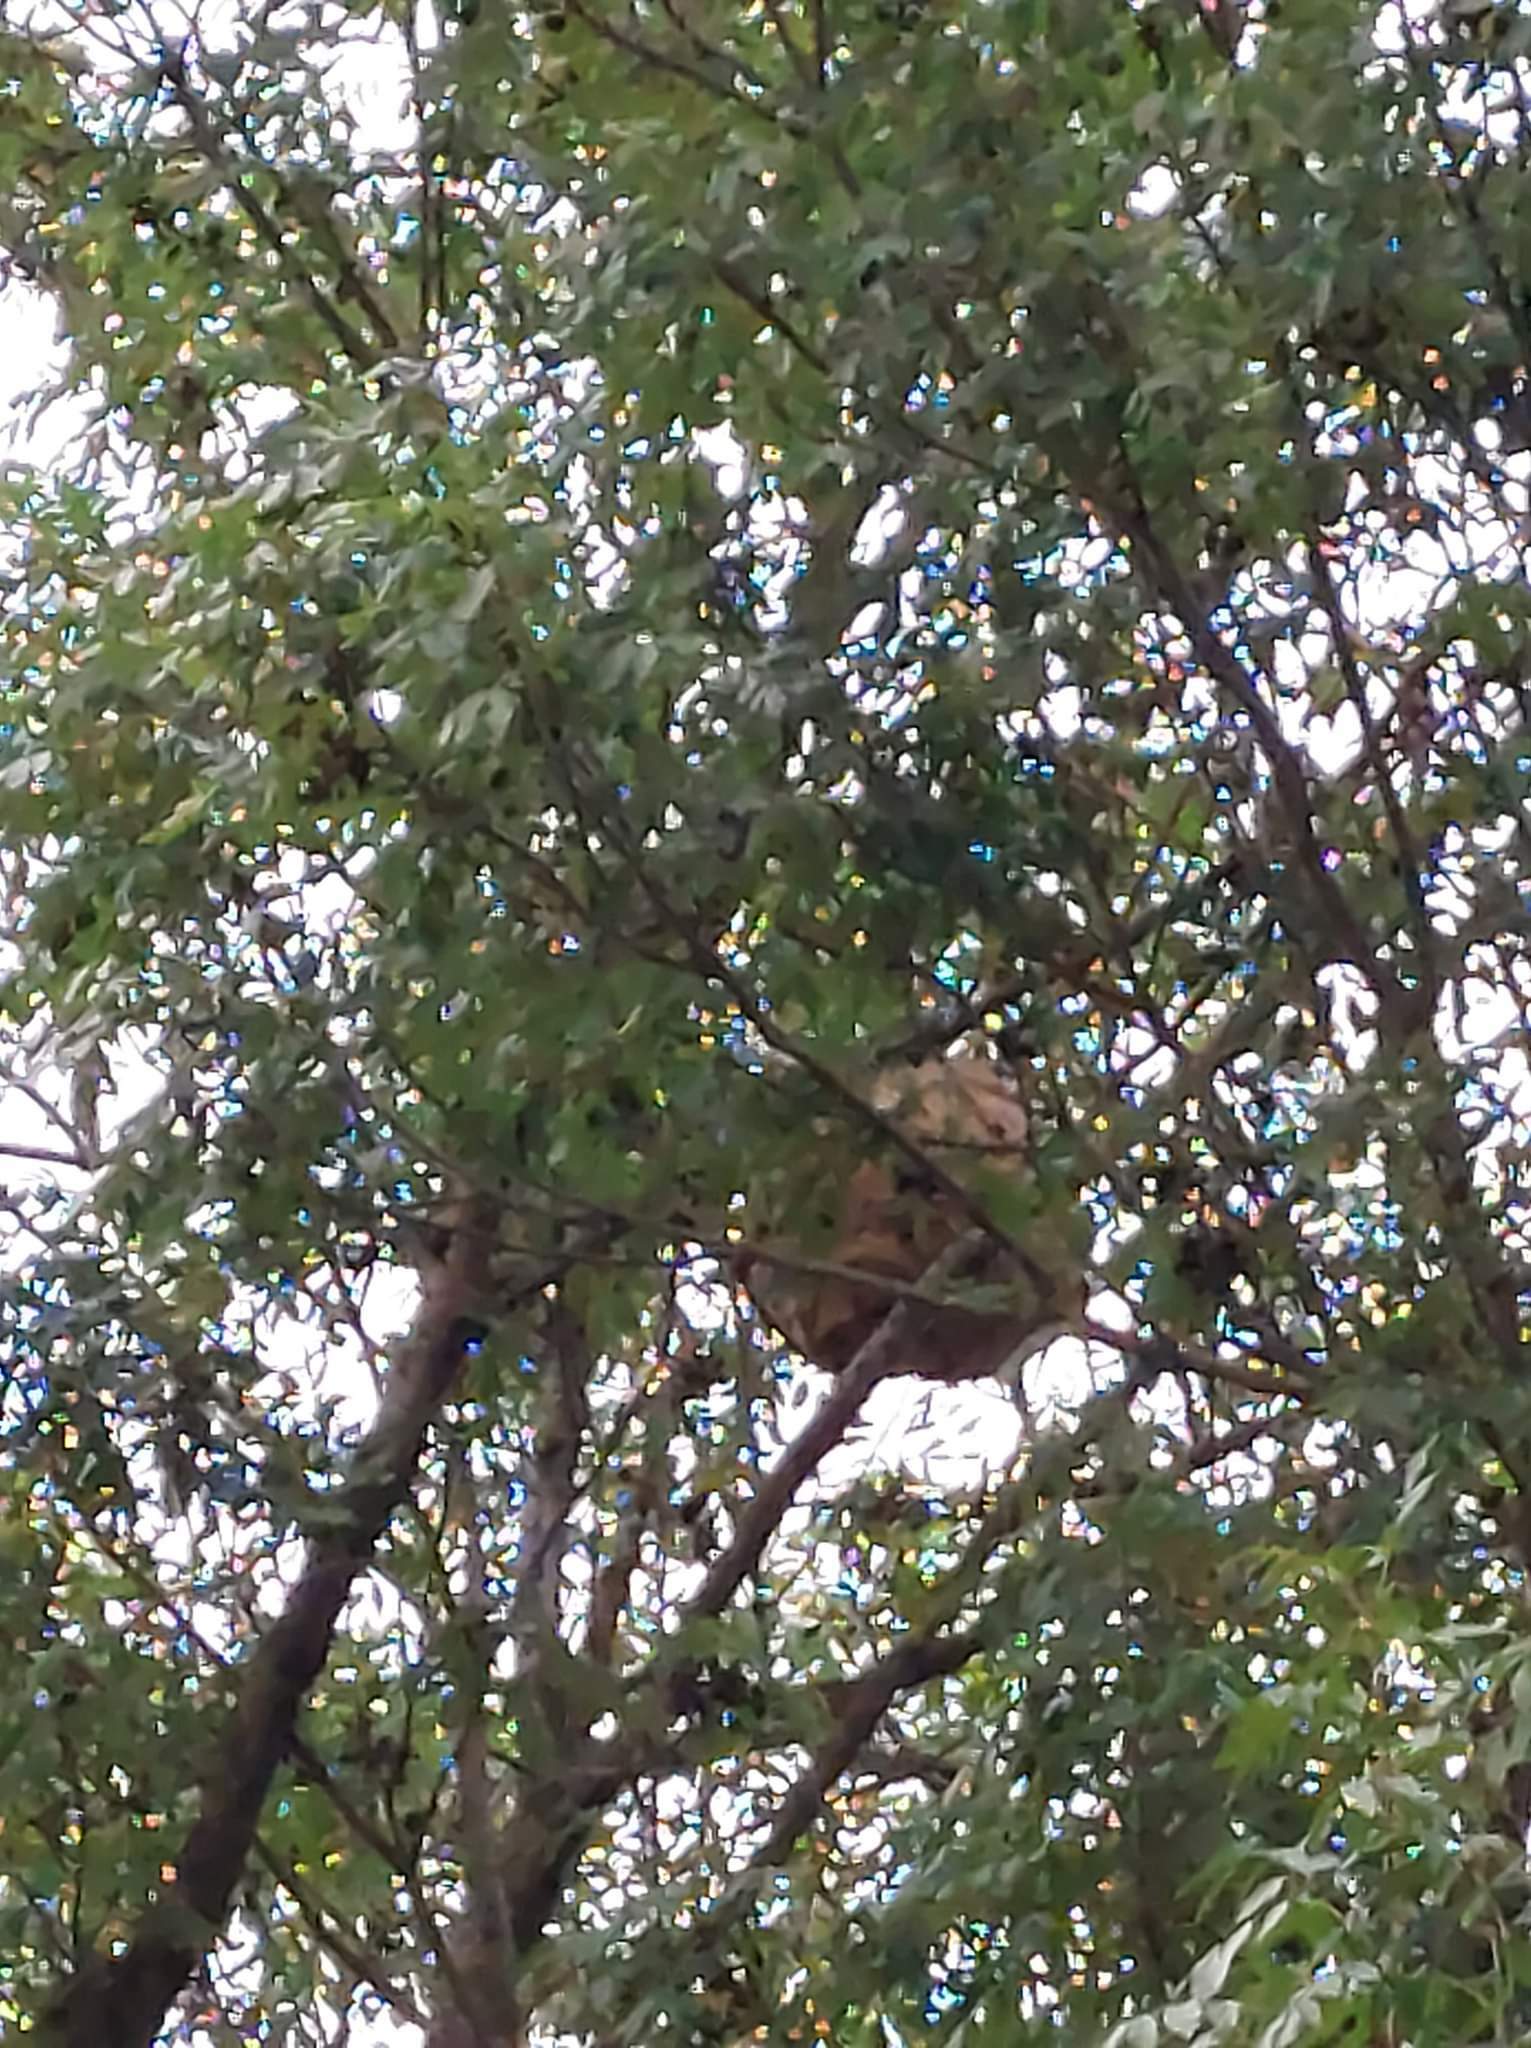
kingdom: Animalia
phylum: Arthropoda
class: Insecta
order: Hymenoptera
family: Vespidae
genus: Vespa
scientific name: Vespa velutina
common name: Asian hornet
